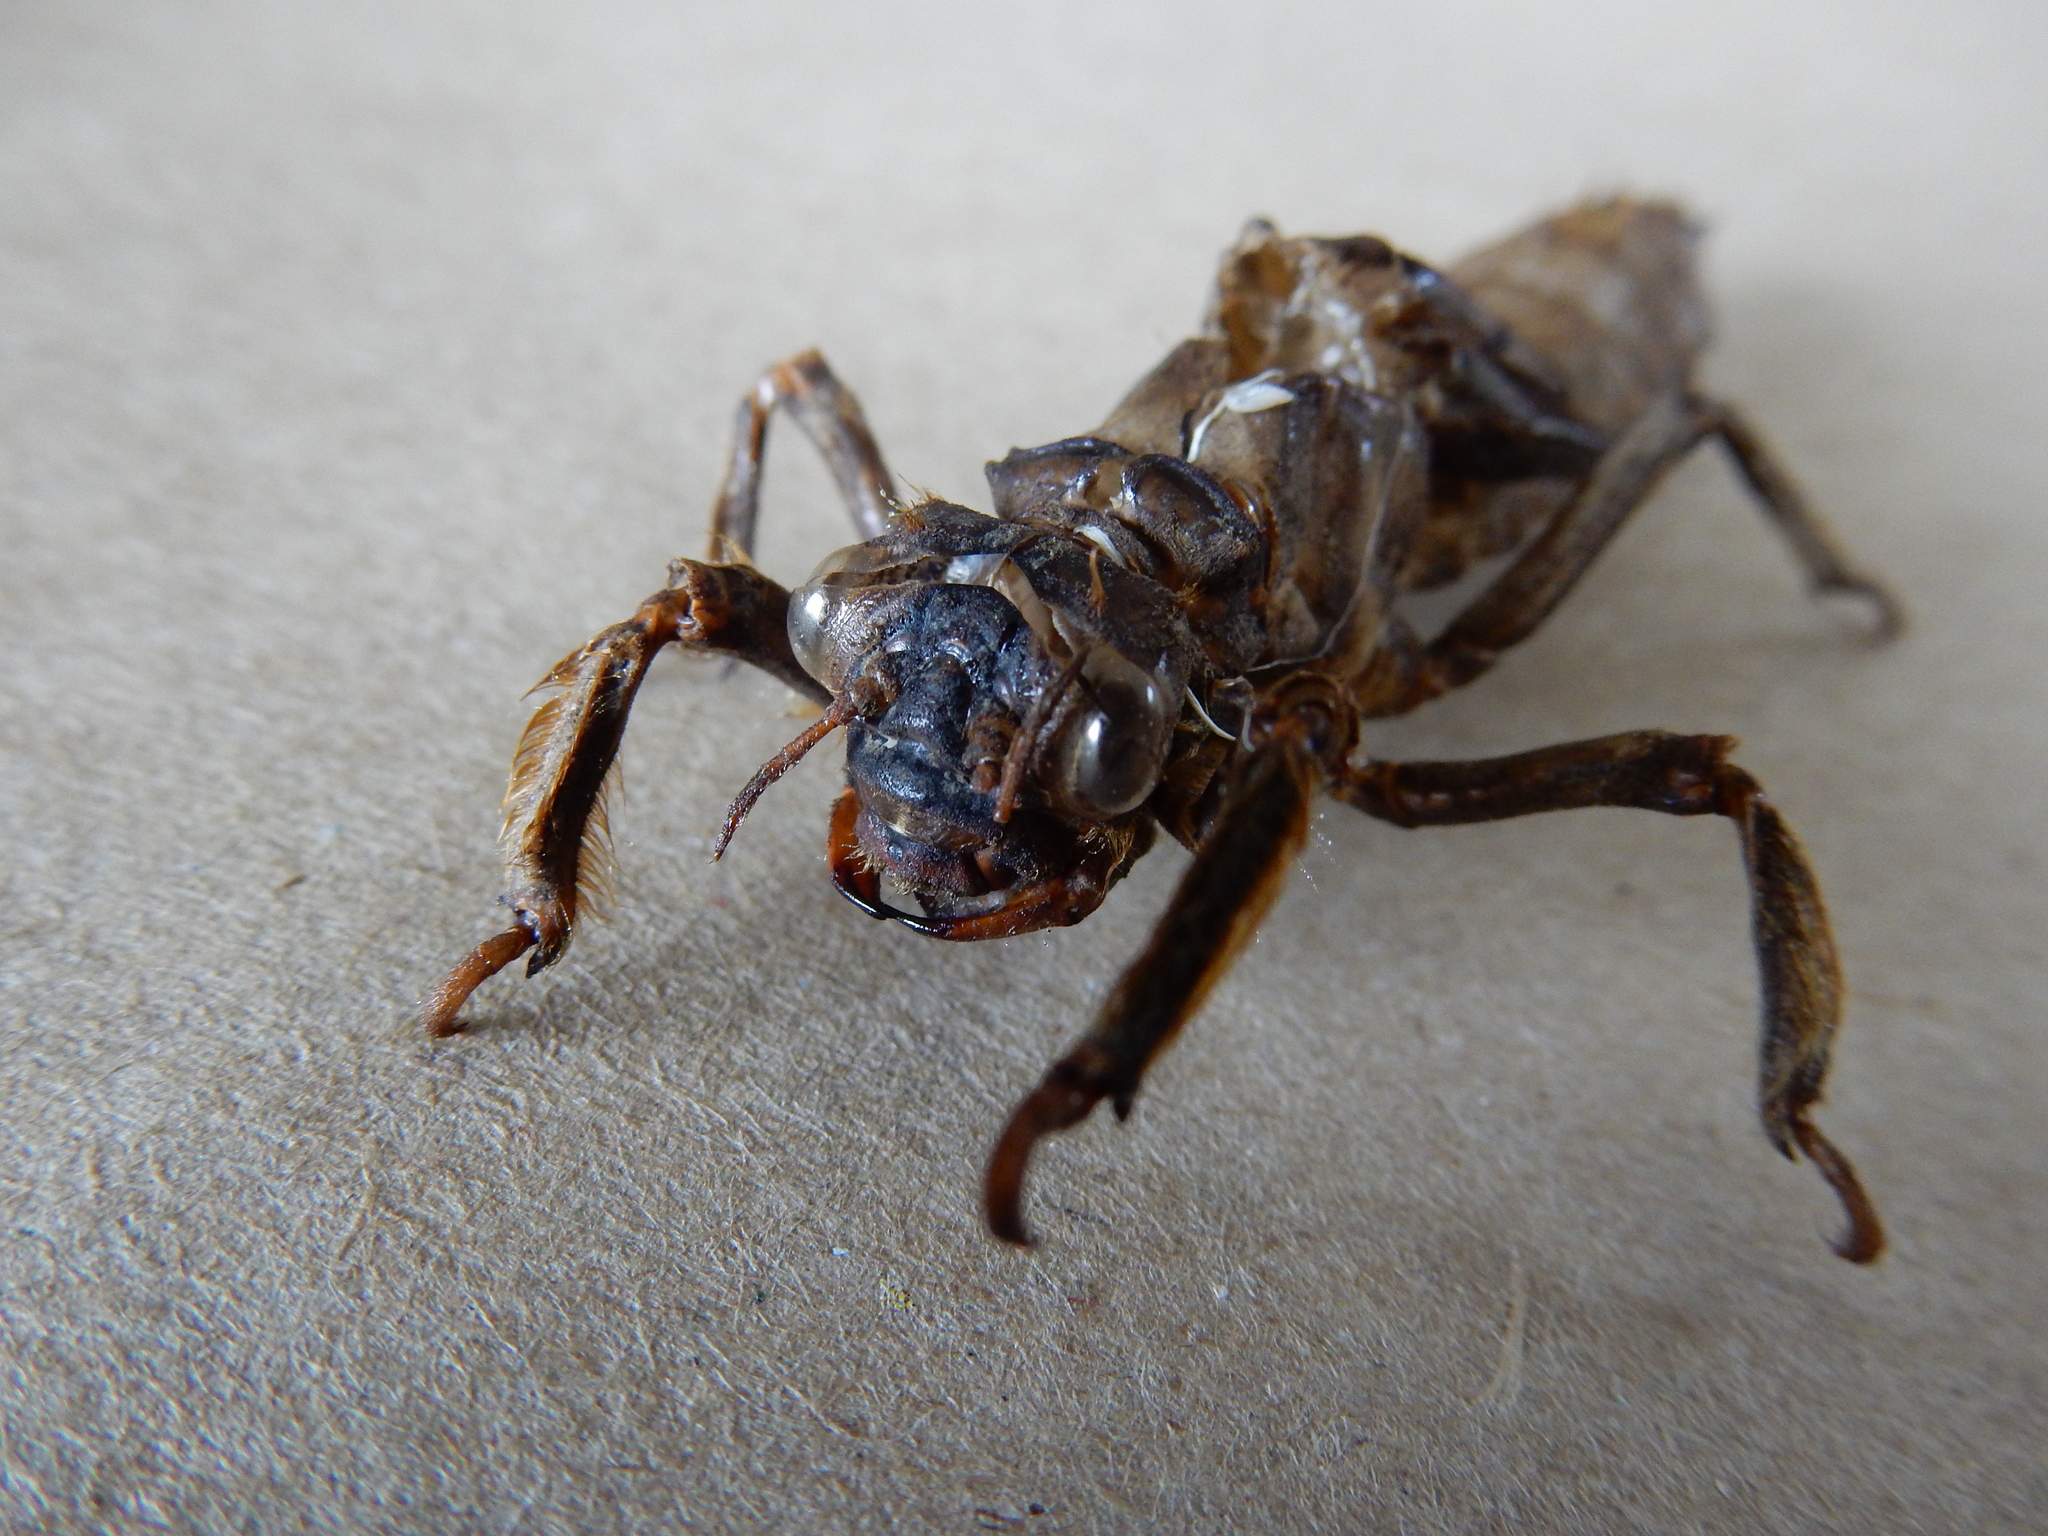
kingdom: Animalia
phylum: Arthropoda
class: Insecta
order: Odonata
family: Petaluridae
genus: Uropetala
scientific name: Uropetala chiltoni
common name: Mountain giant dragonfly
